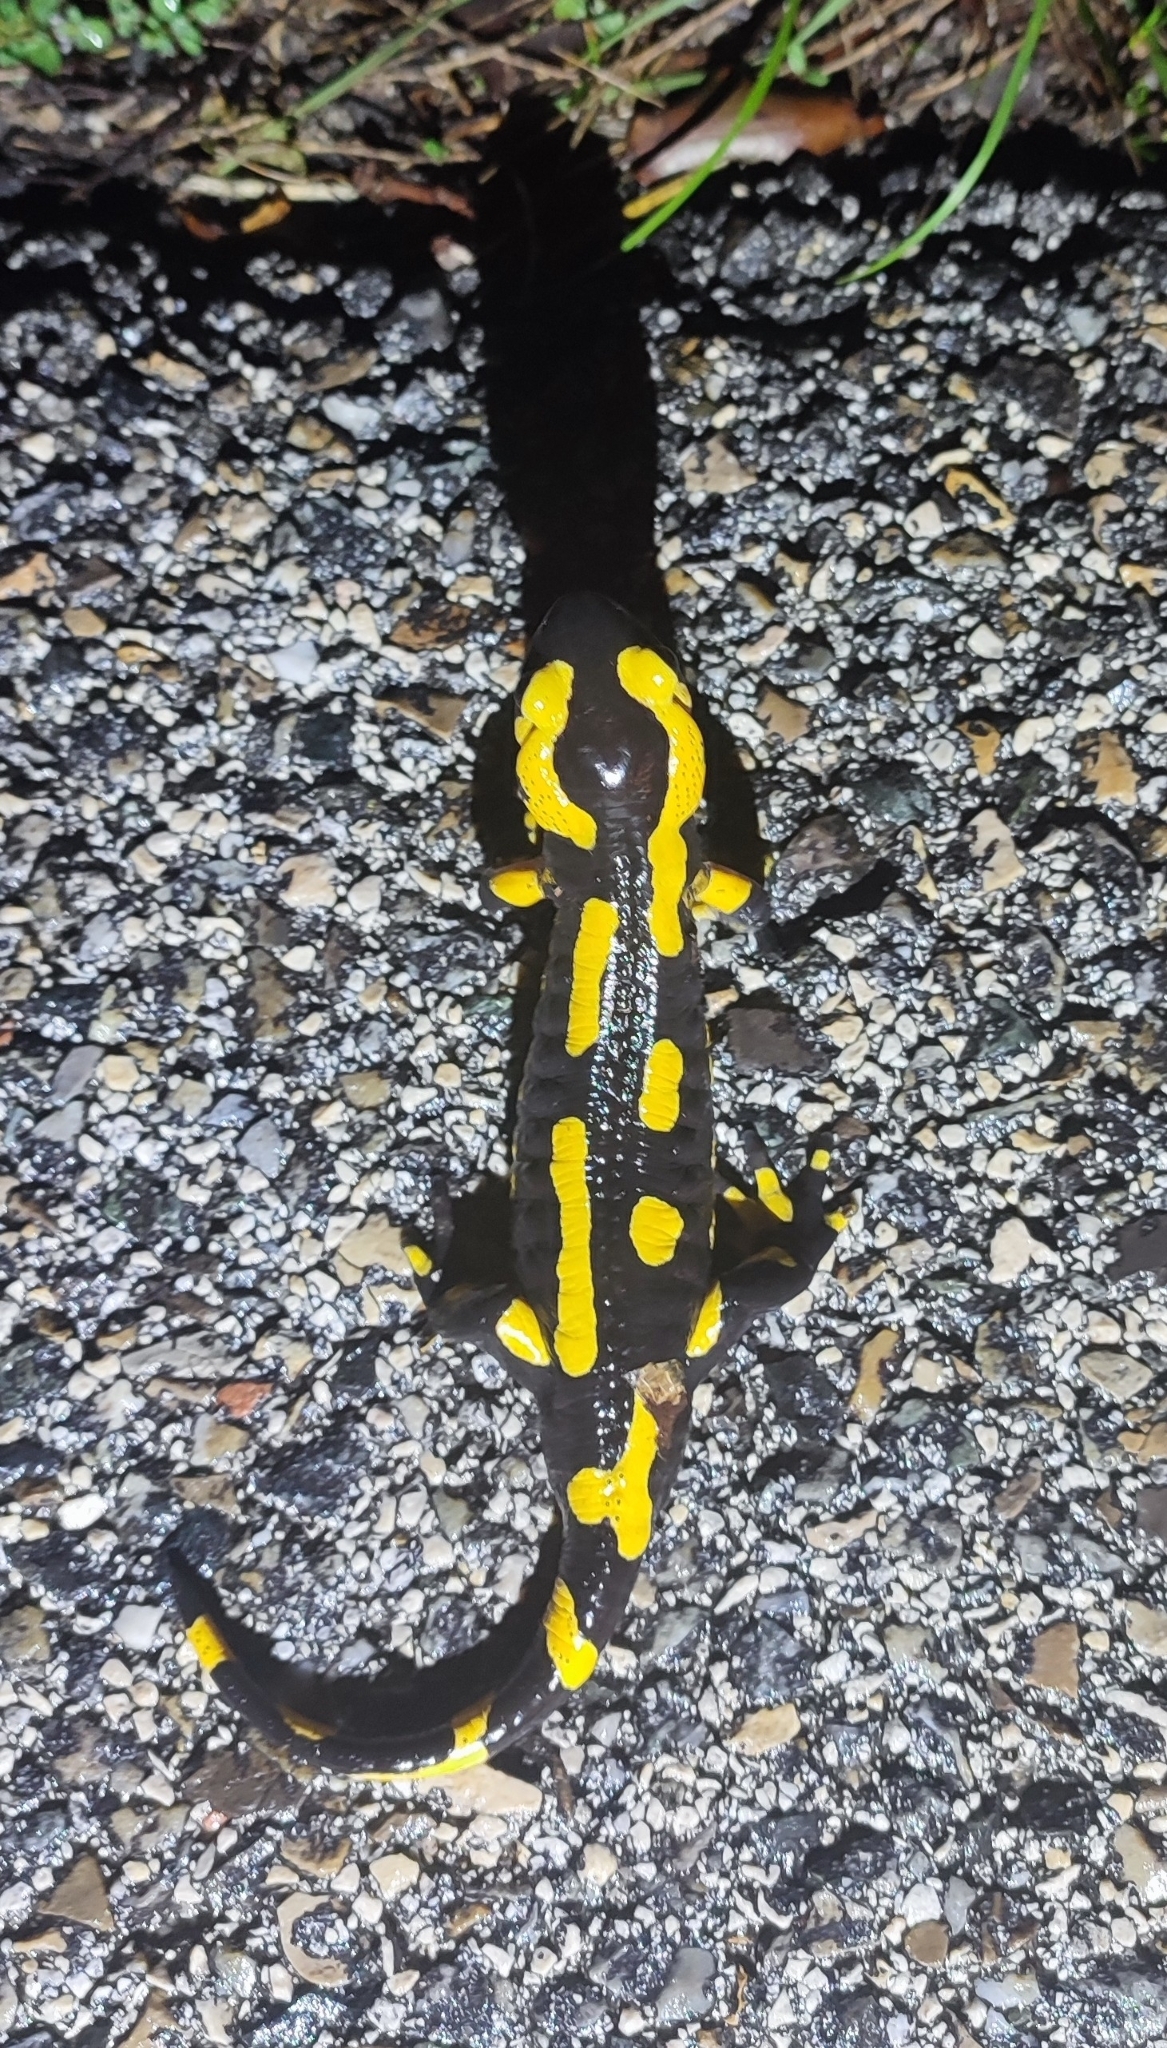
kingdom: Animalia
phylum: Chordata
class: Amphibia
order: Caudata
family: Salamandridae
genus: Salamandra
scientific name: Salamandra salamandra
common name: Fire salamander
